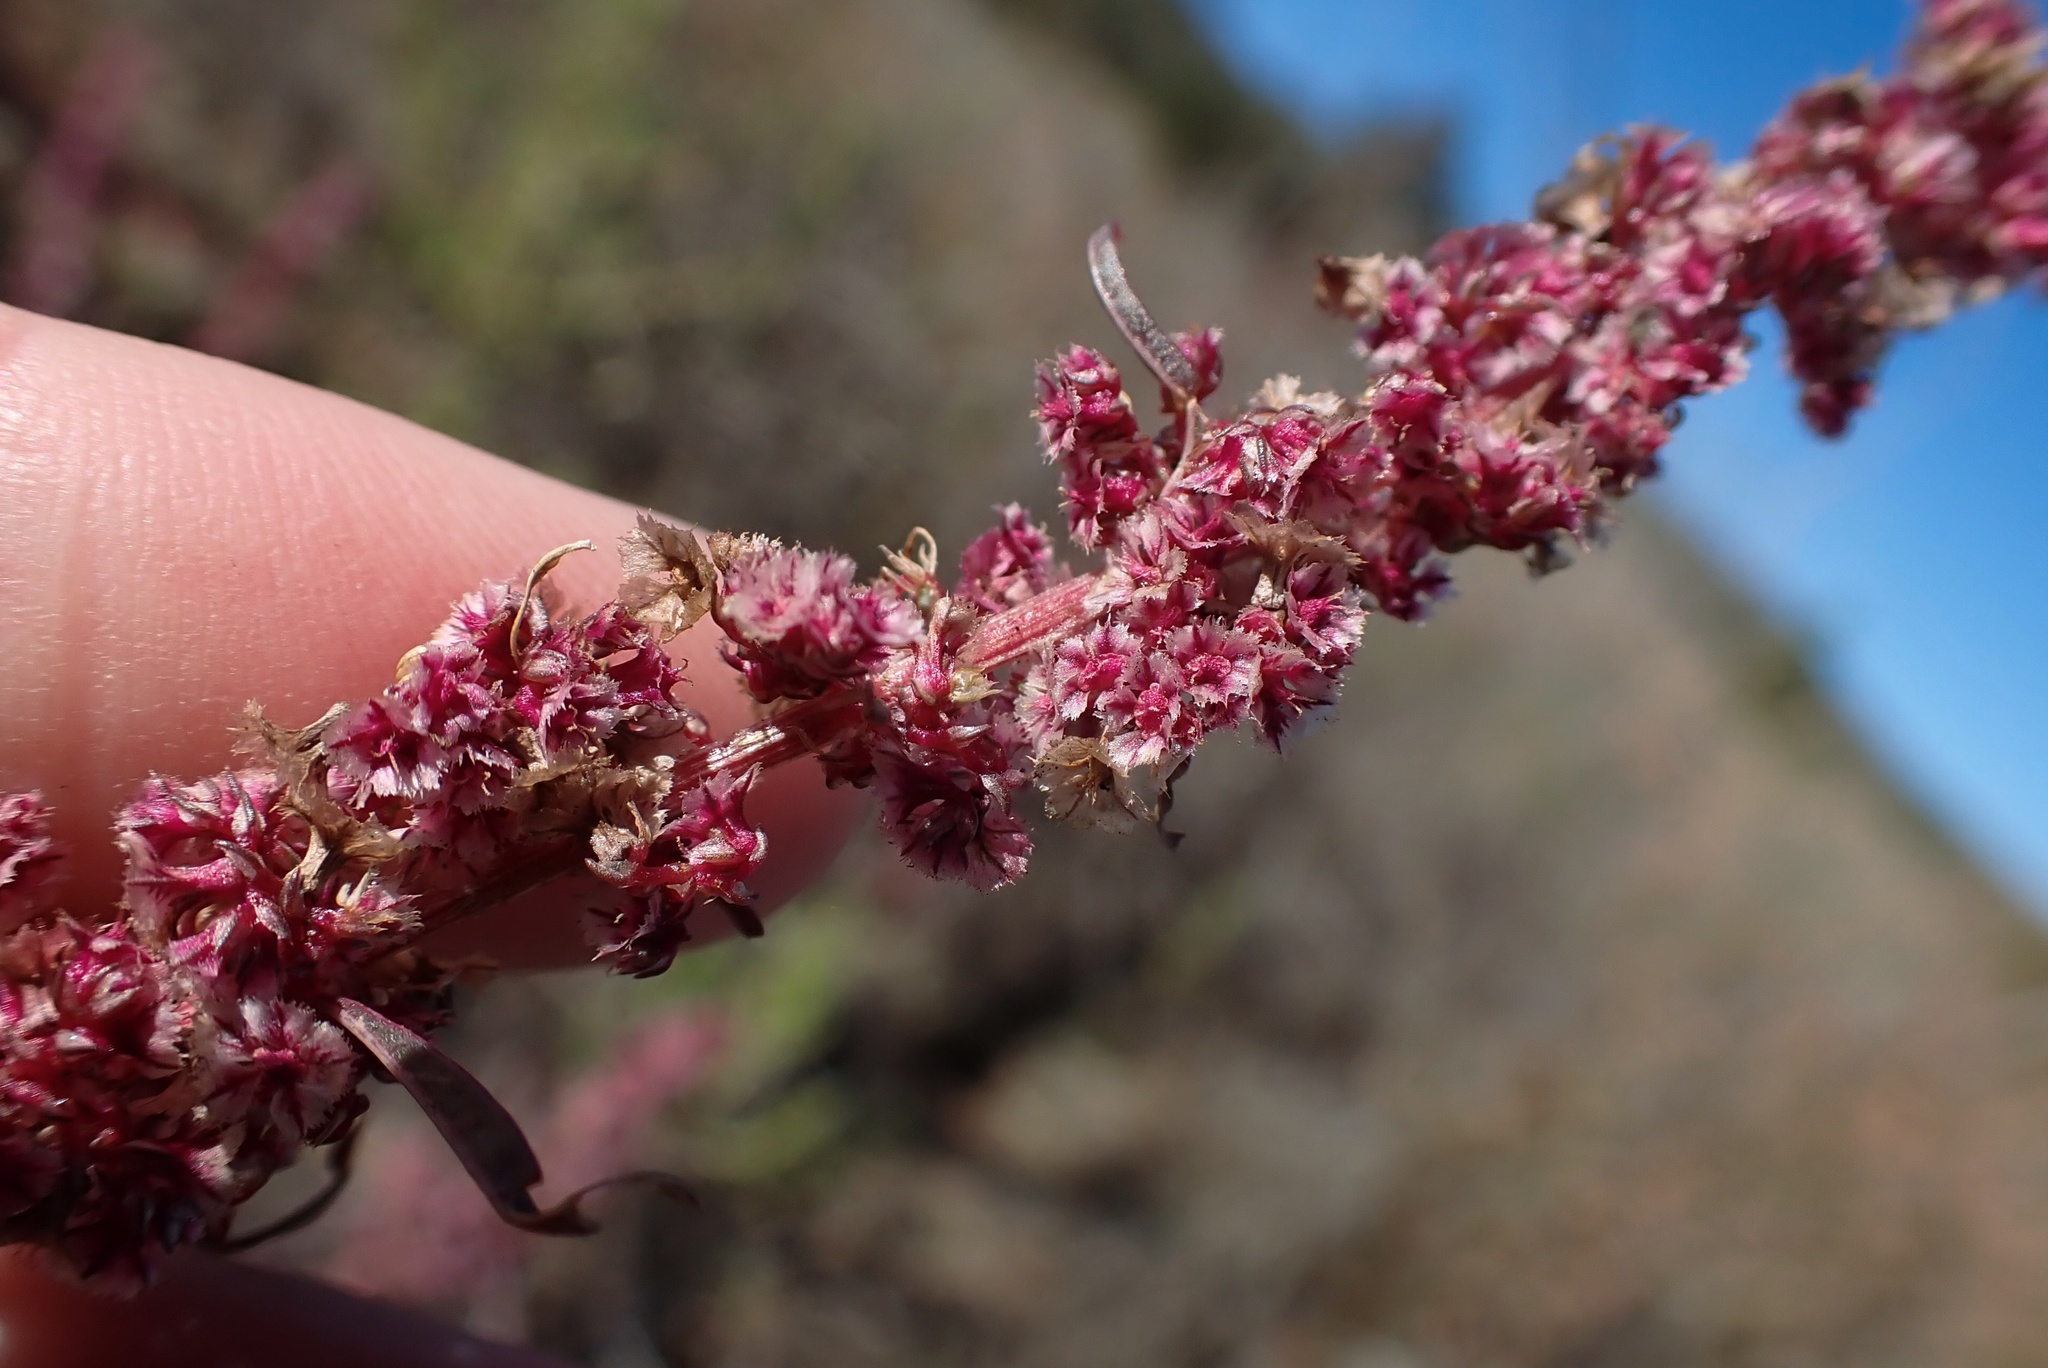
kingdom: Plantae
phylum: Tracheophyta
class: Magnoliopsida
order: Caryophyllales
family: Amaranthaceae
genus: Amaranthus
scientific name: Amaranthus fimbriatus
